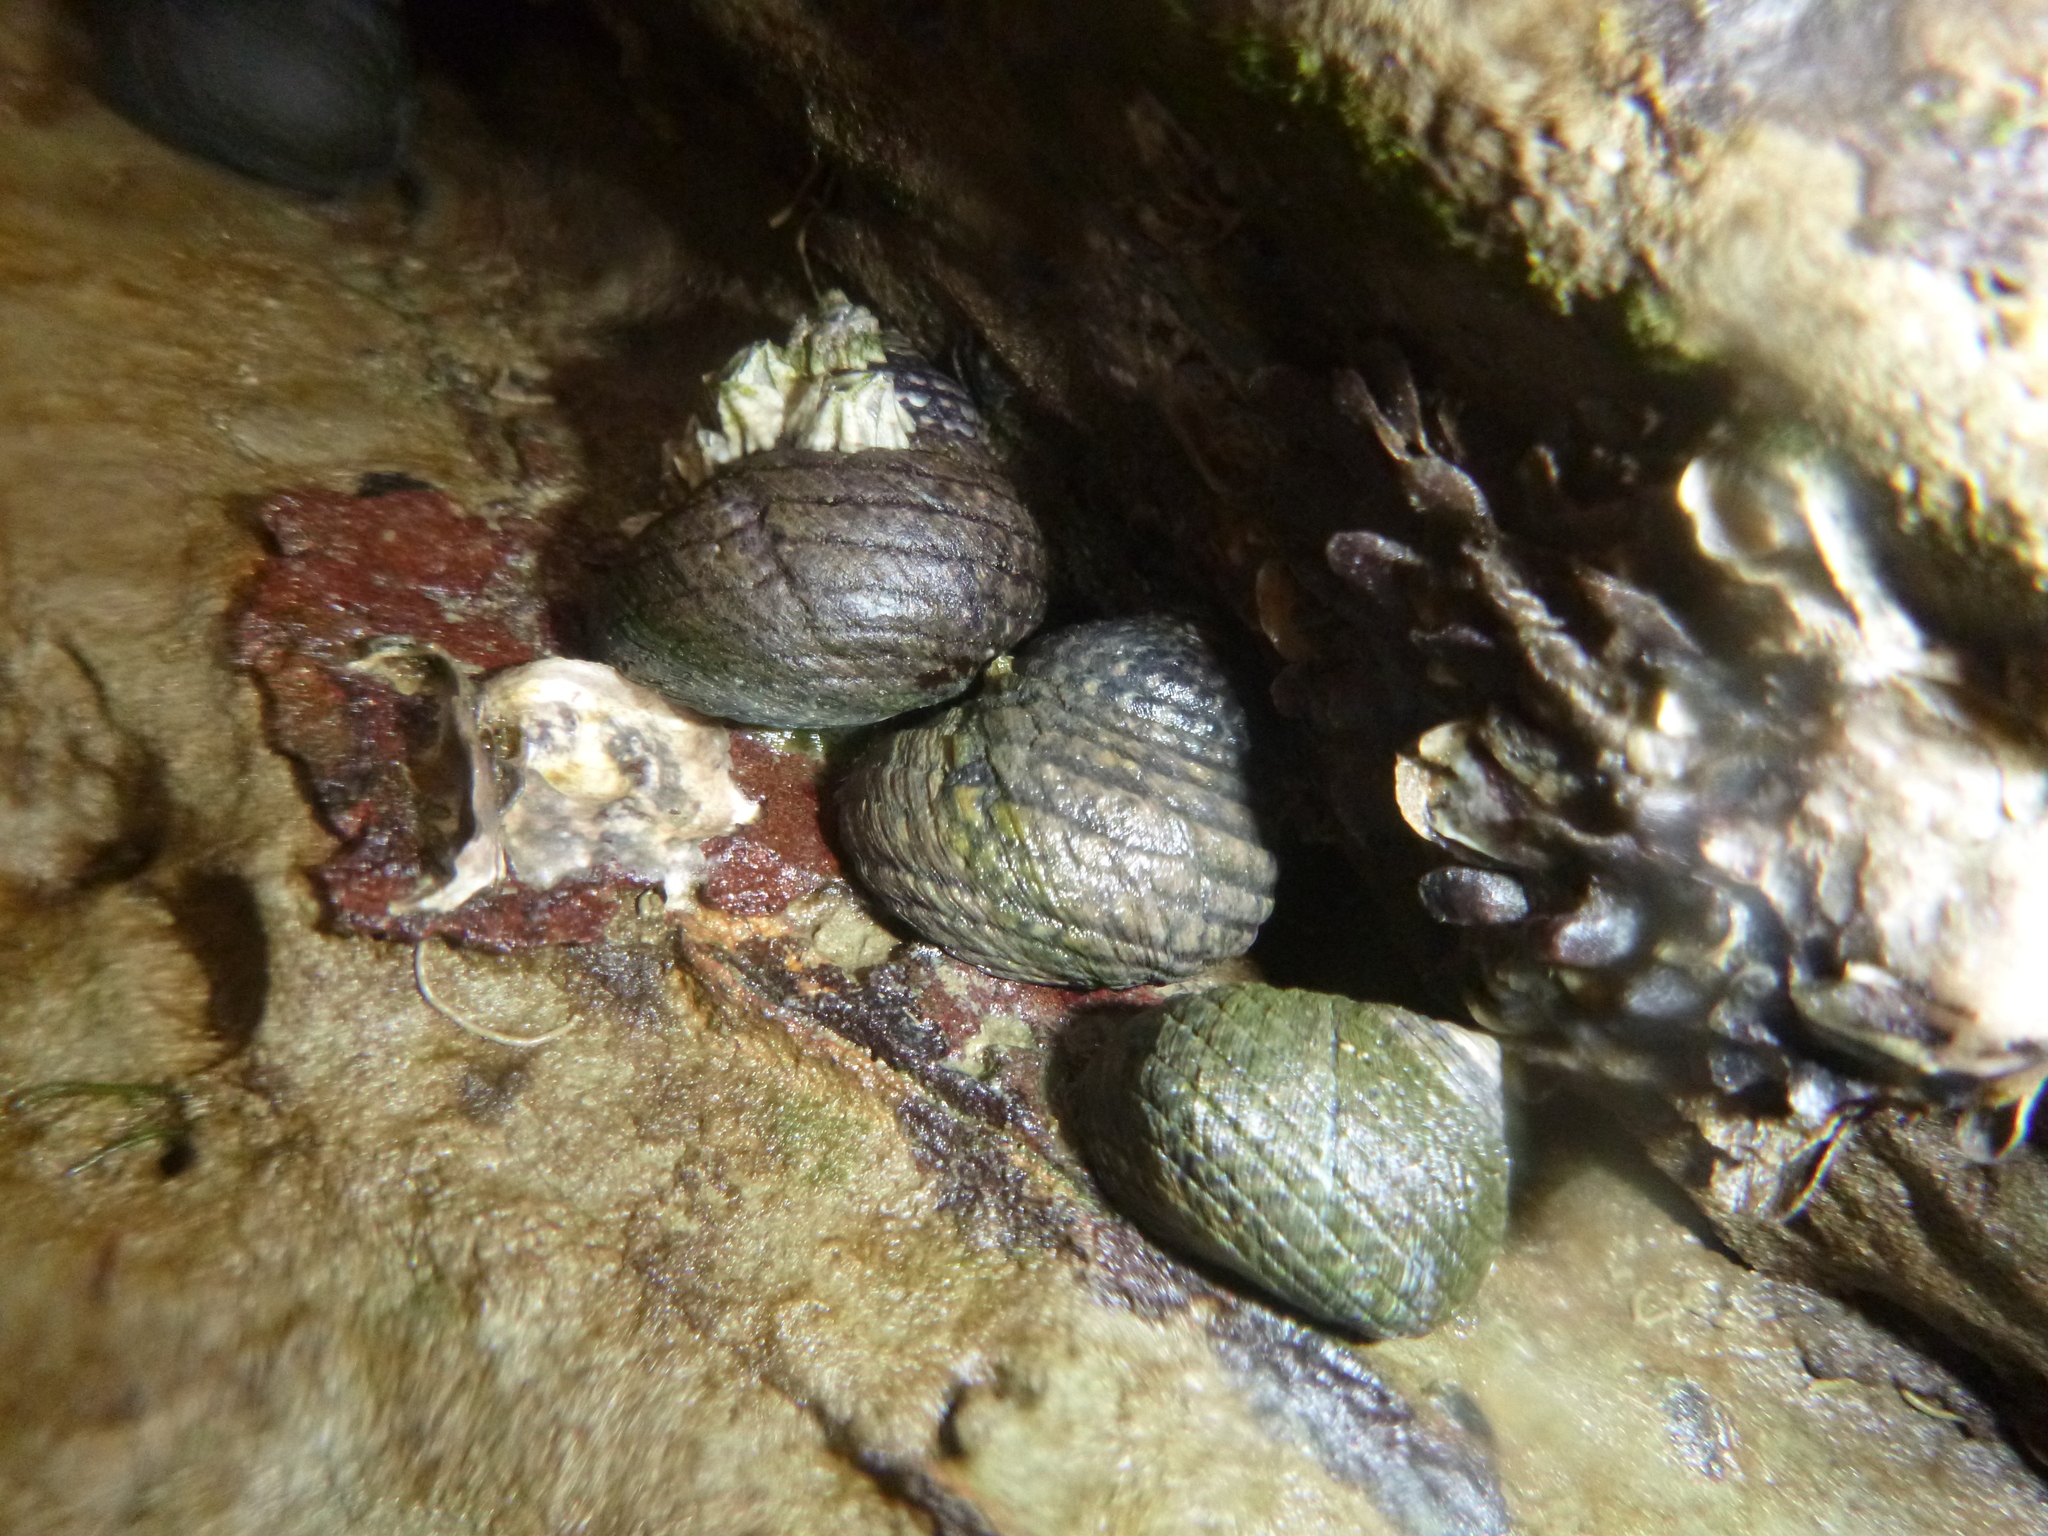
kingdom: Animalia
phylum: Mollusca
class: Gastropoda
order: Trochida
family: Trochidae
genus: Diloma
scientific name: Diloma aethiops
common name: Scorched monodont
